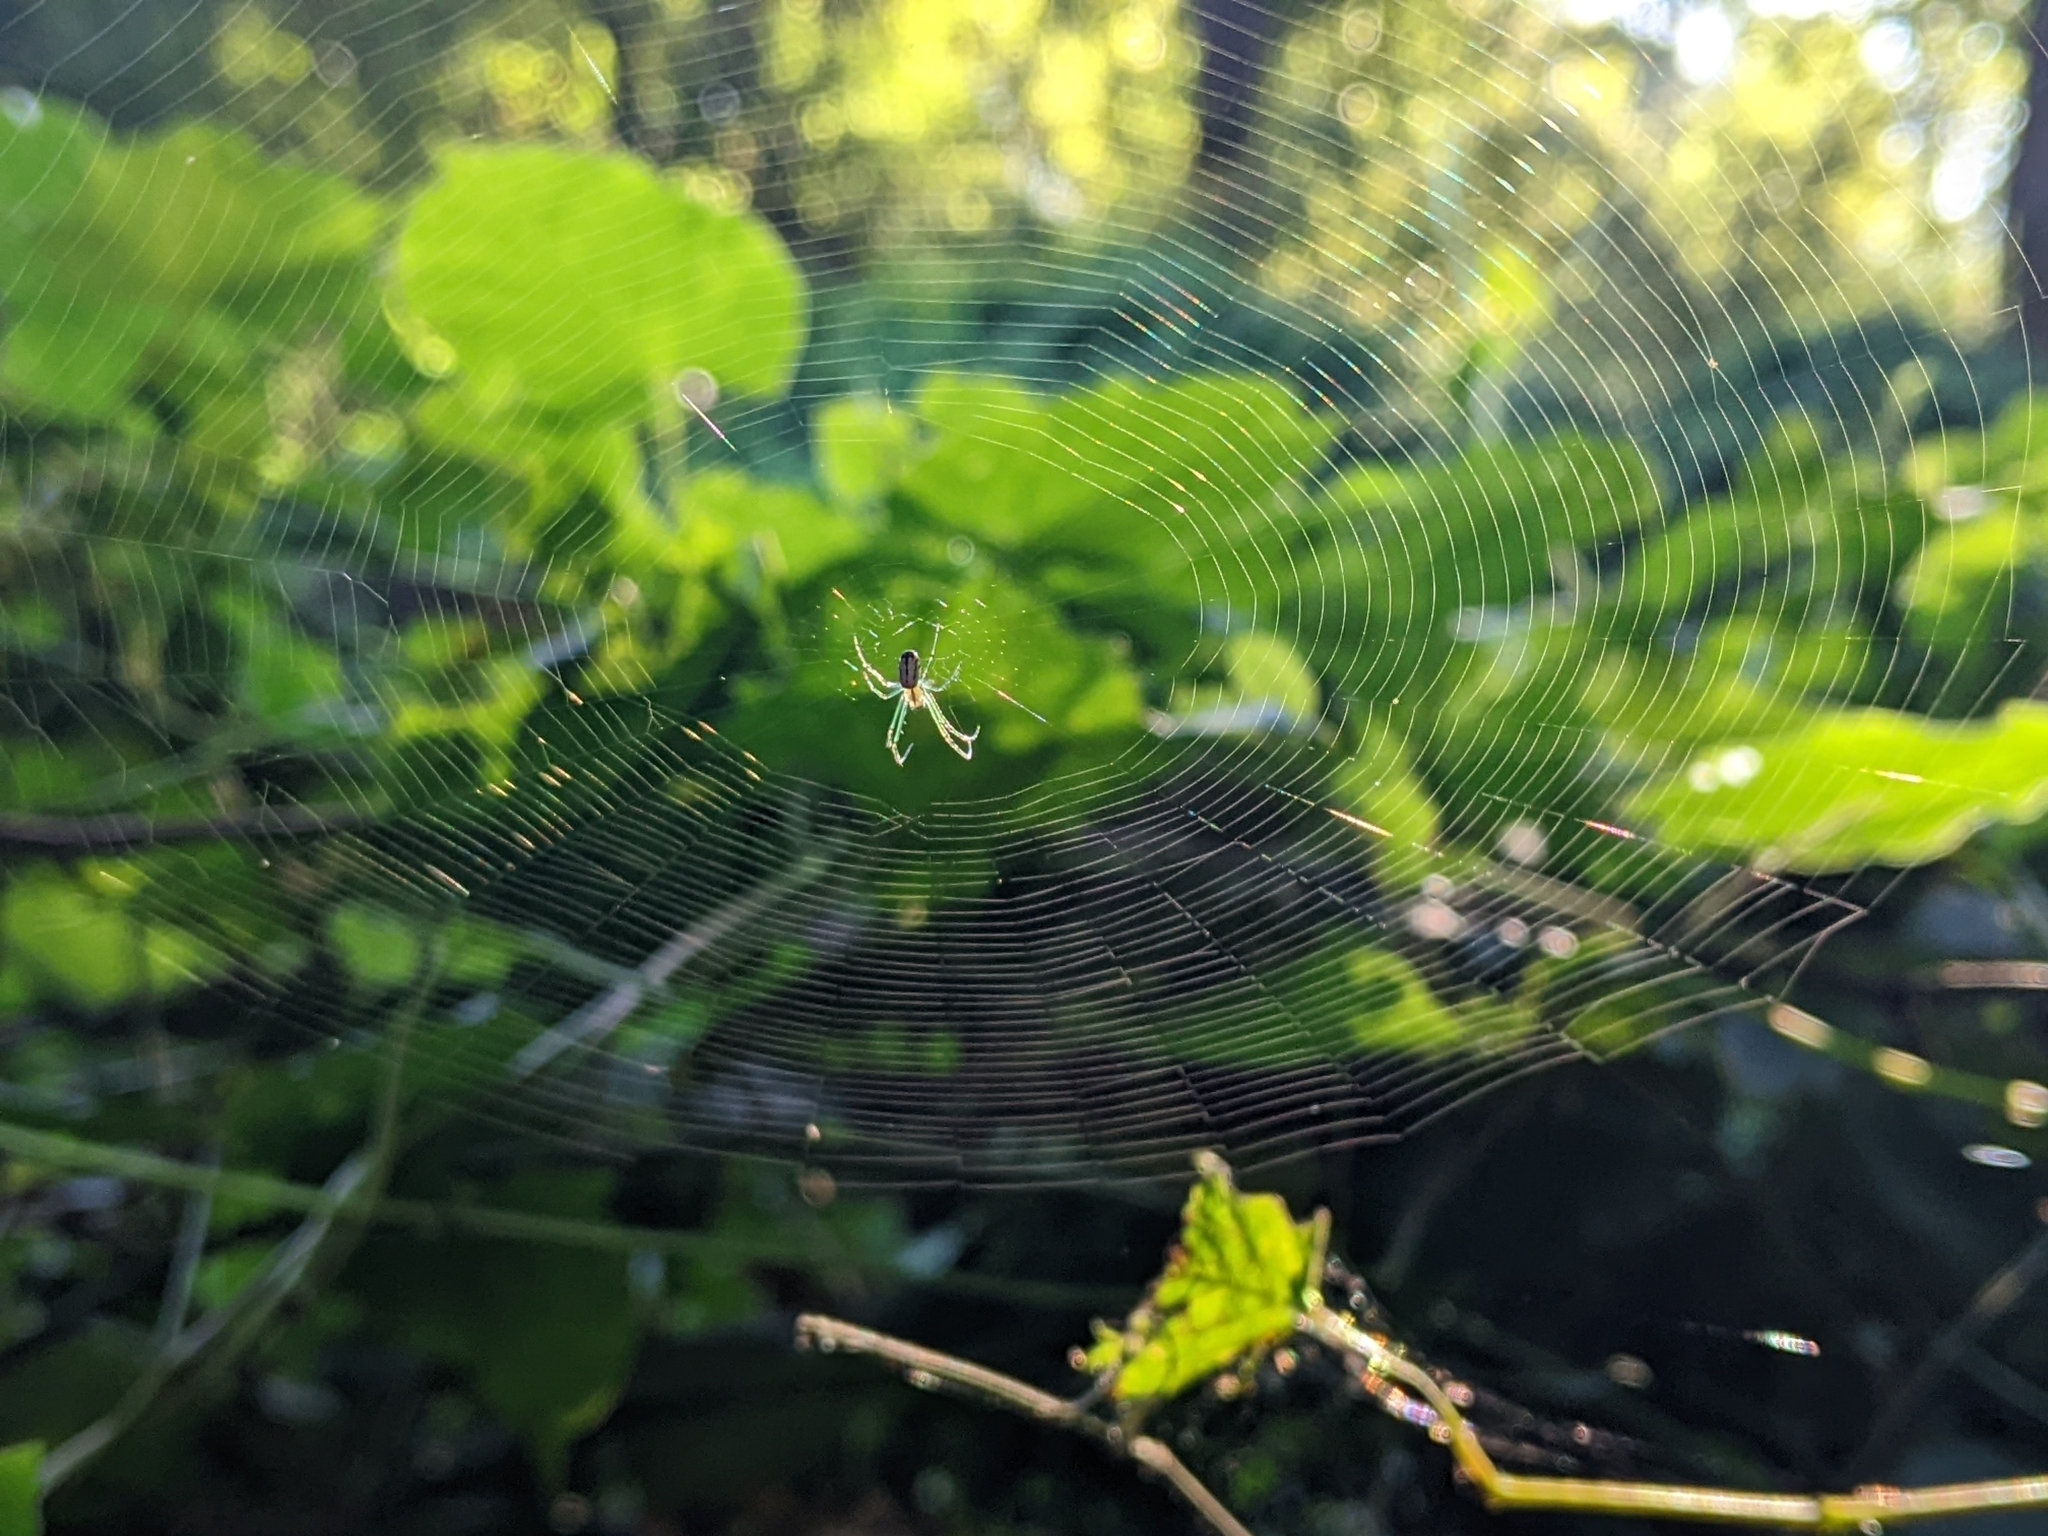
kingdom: Animalia
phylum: Arthropoda
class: Arachnida
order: Araneae
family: Tetragnathidae
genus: Leucauge
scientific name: Leucauge venusta
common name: Longjawed orb weavers
